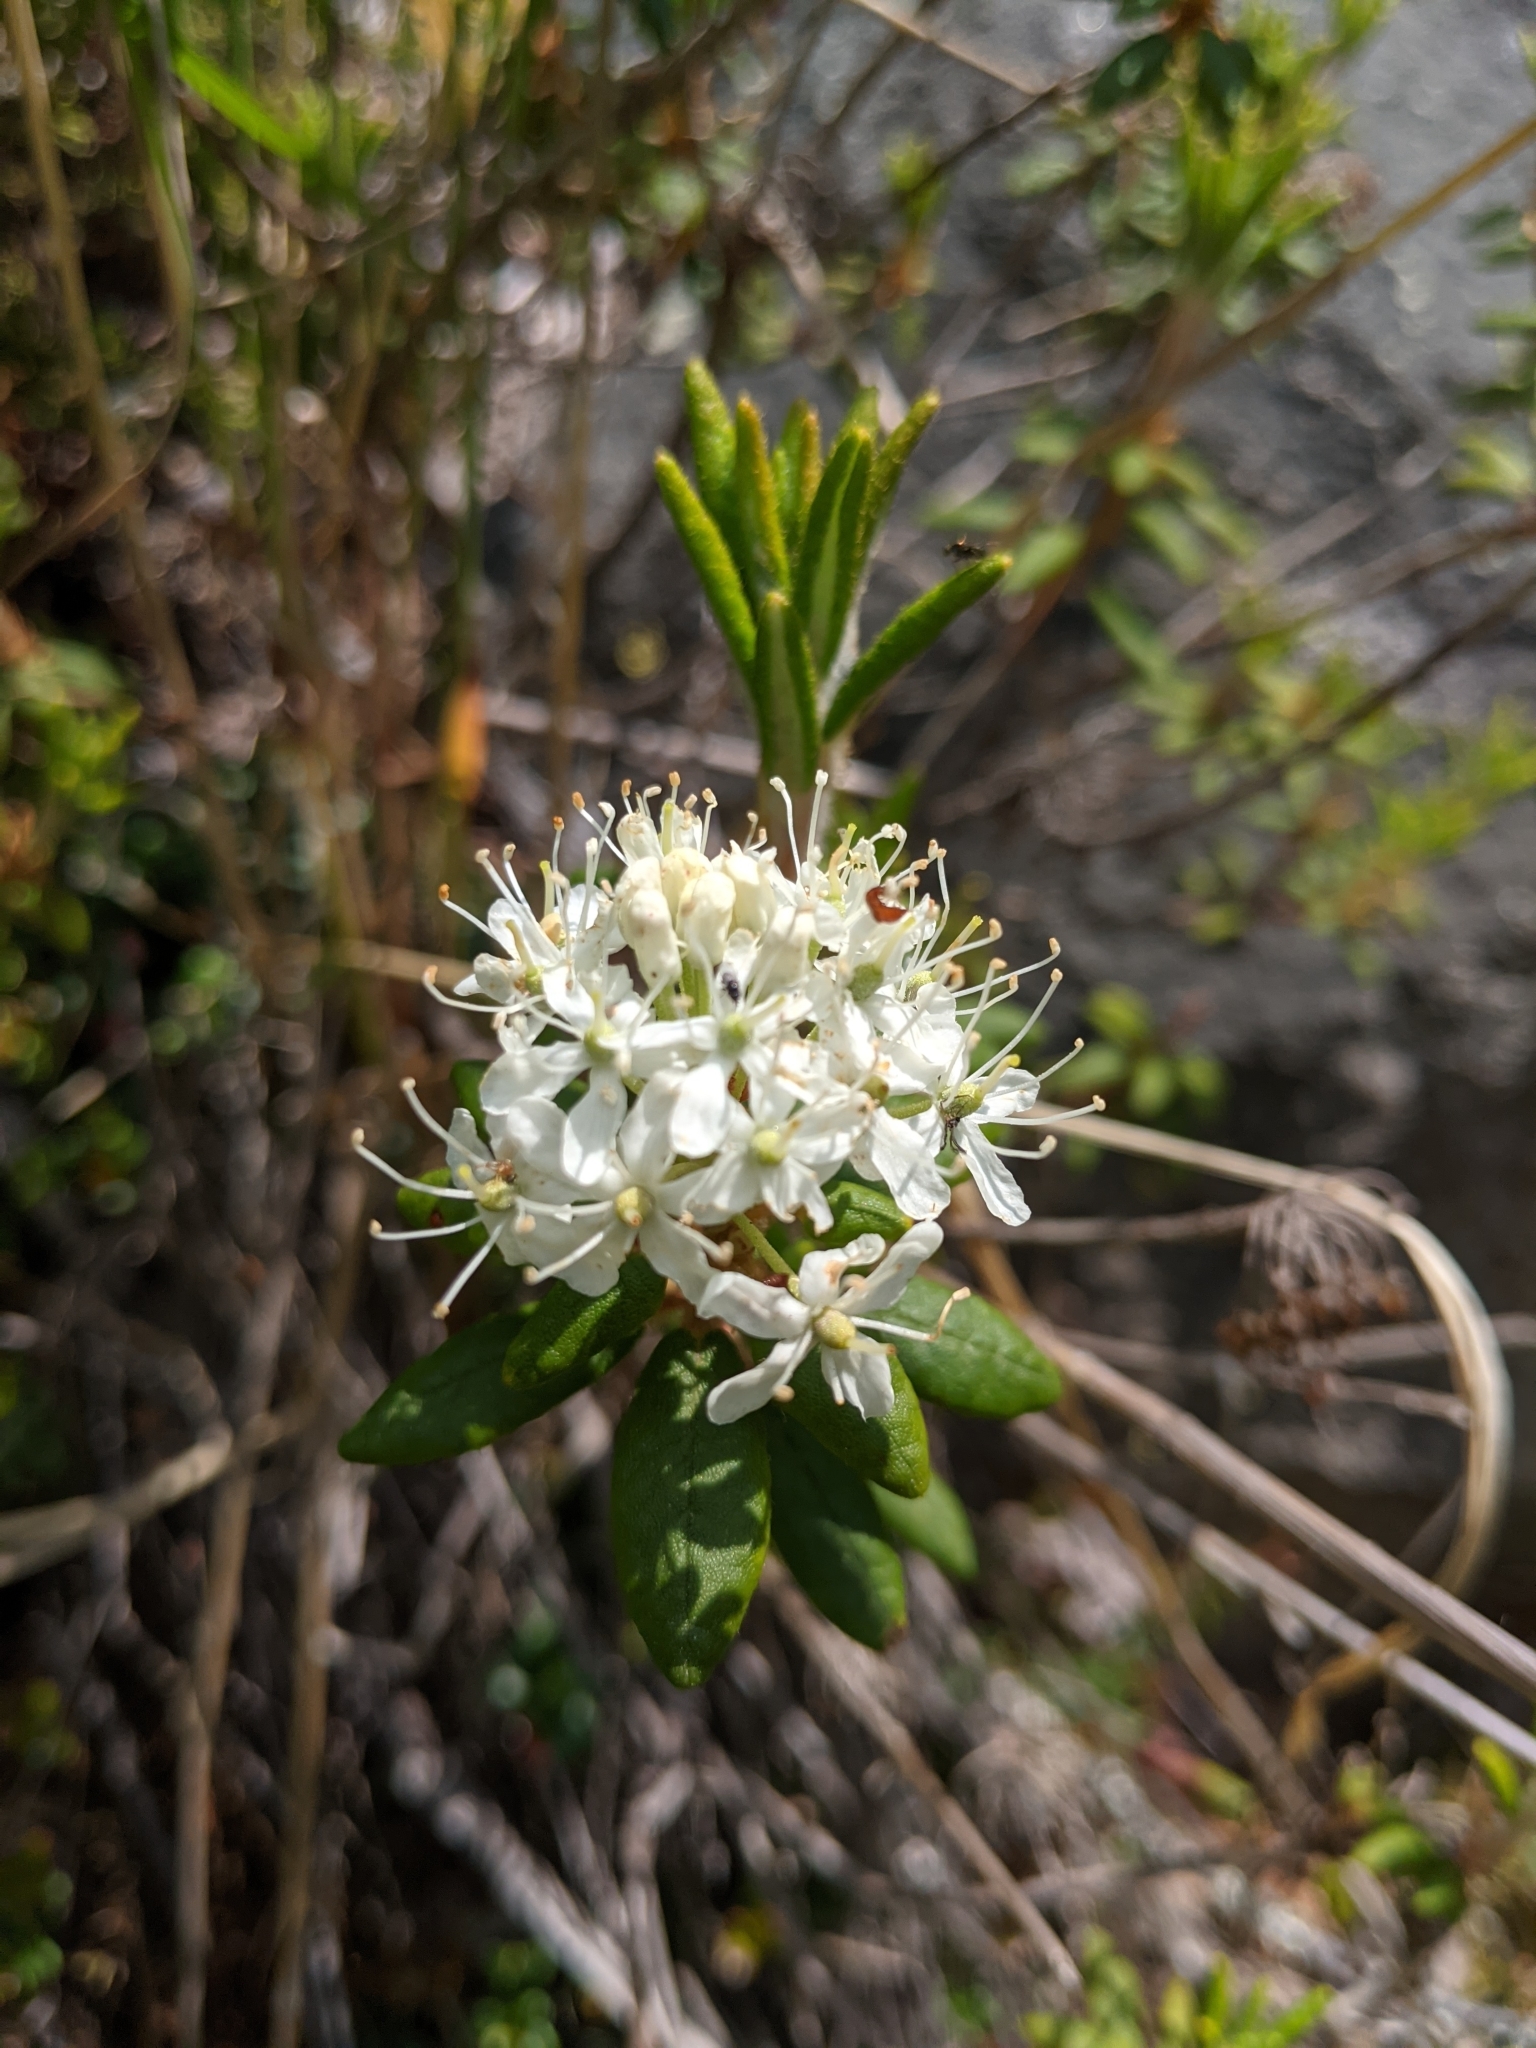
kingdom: Plantae
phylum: Tracheophyta
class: Magnoliopsida
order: Ericales
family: Ericaceae
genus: Rhododendron
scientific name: Rhododendron groenlandicum
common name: Bog labrador tea
